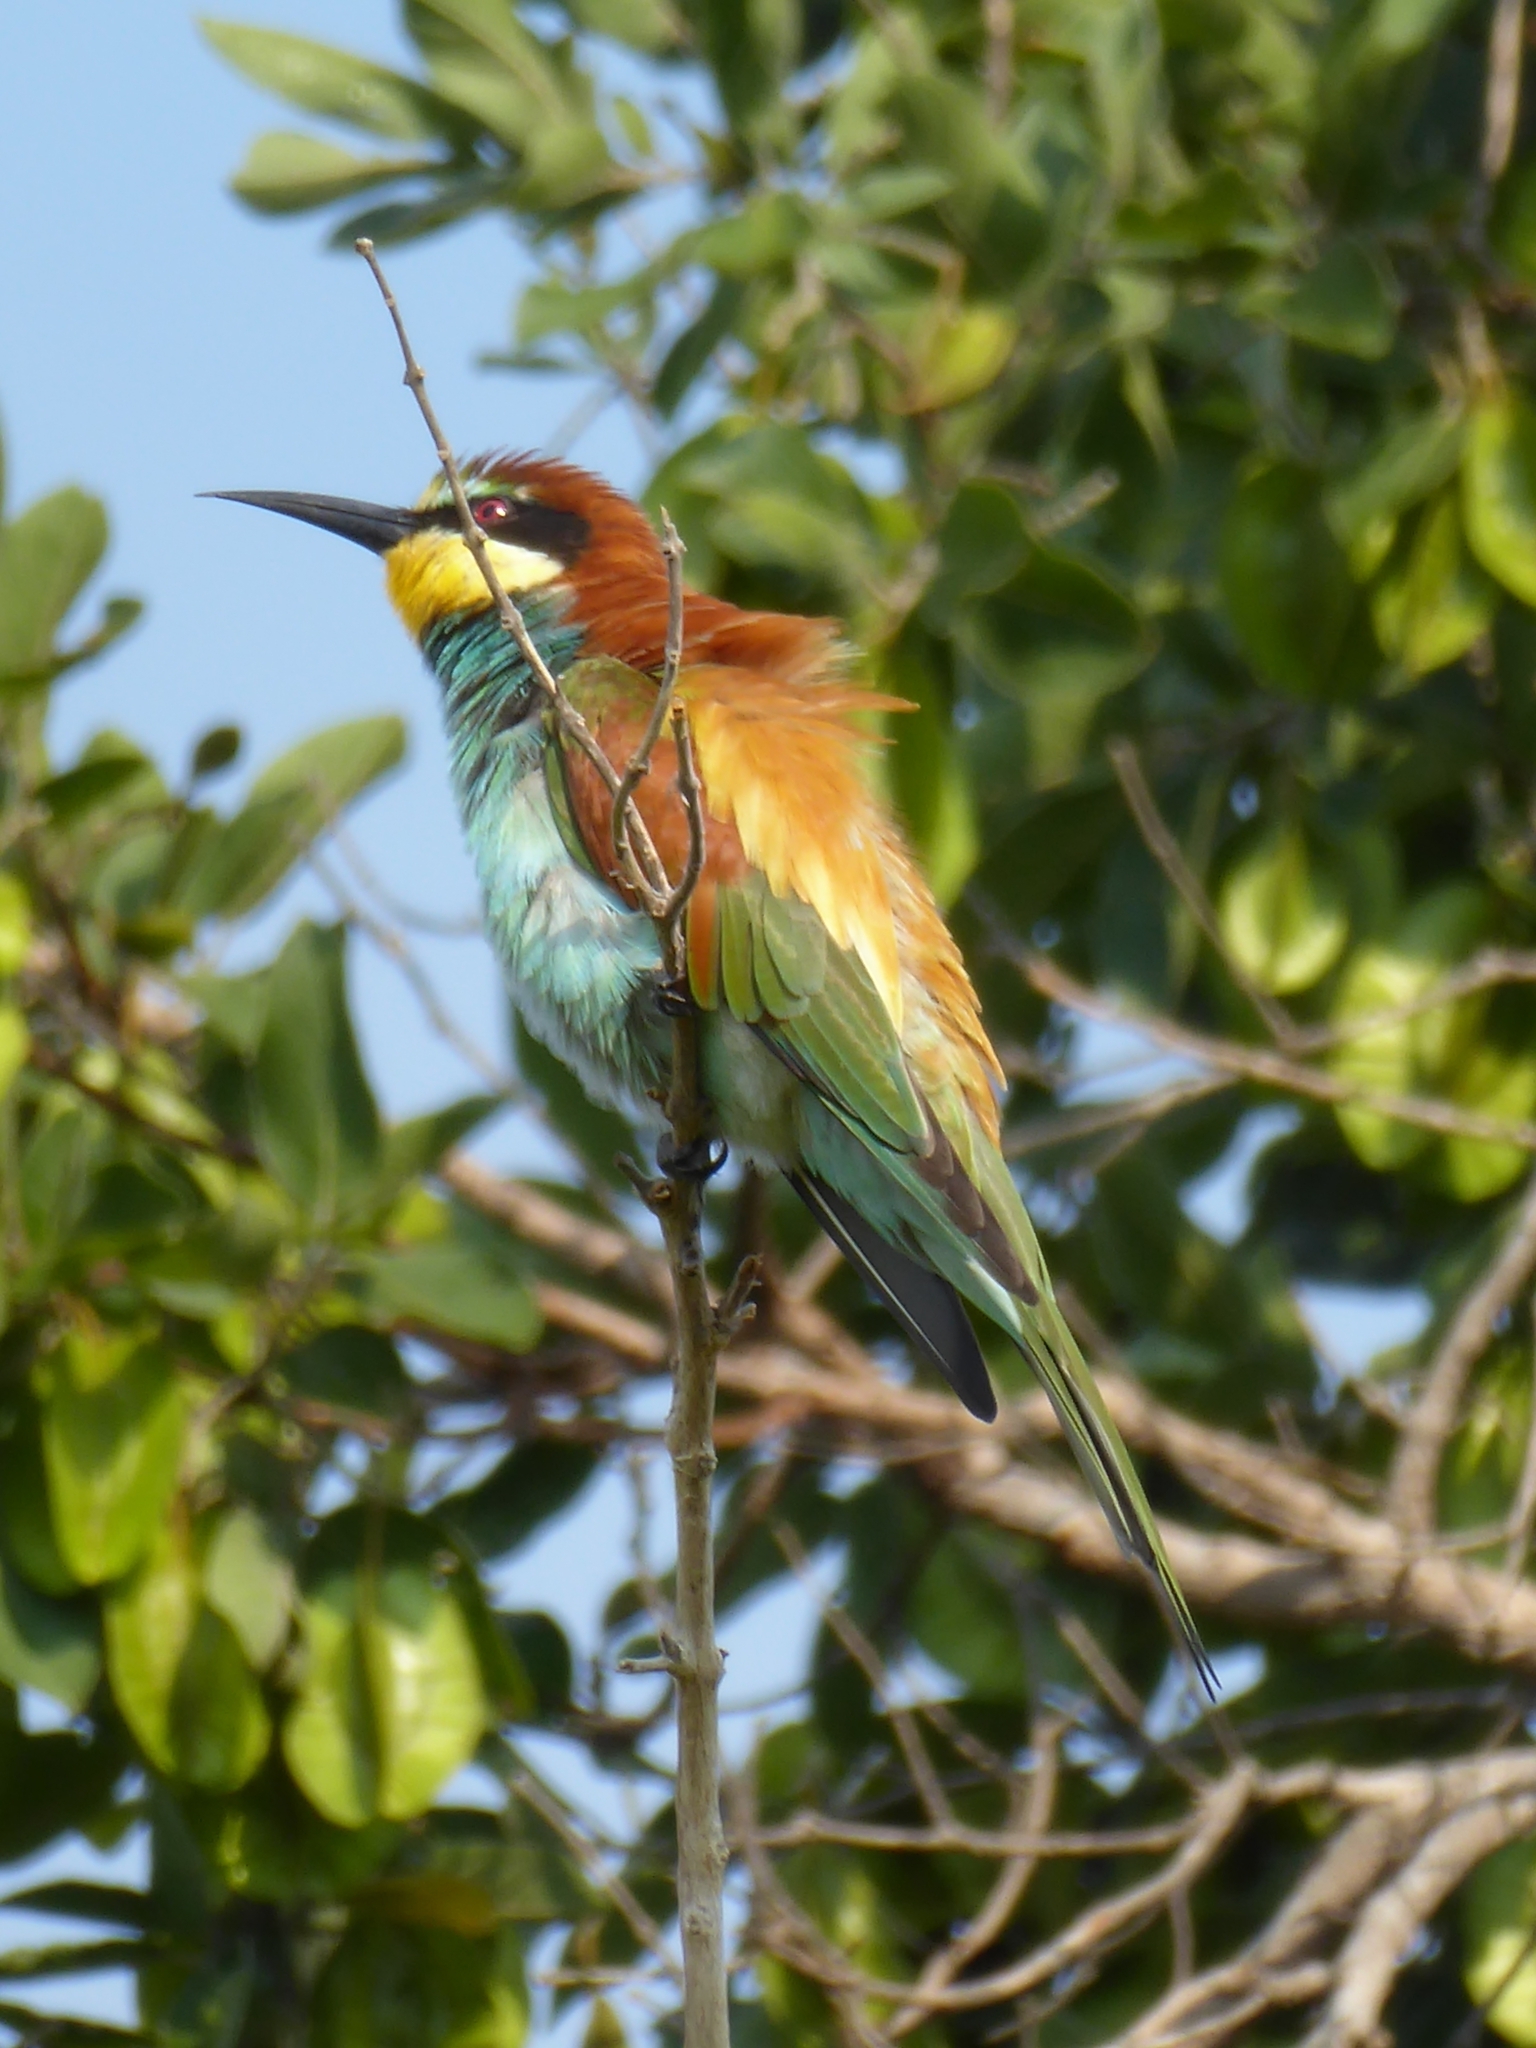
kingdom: Animalia
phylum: Chordata
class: Aves
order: Coraciiformes
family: Meropidae
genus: Merops
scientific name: Merops apiaster
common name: European bee-eater
